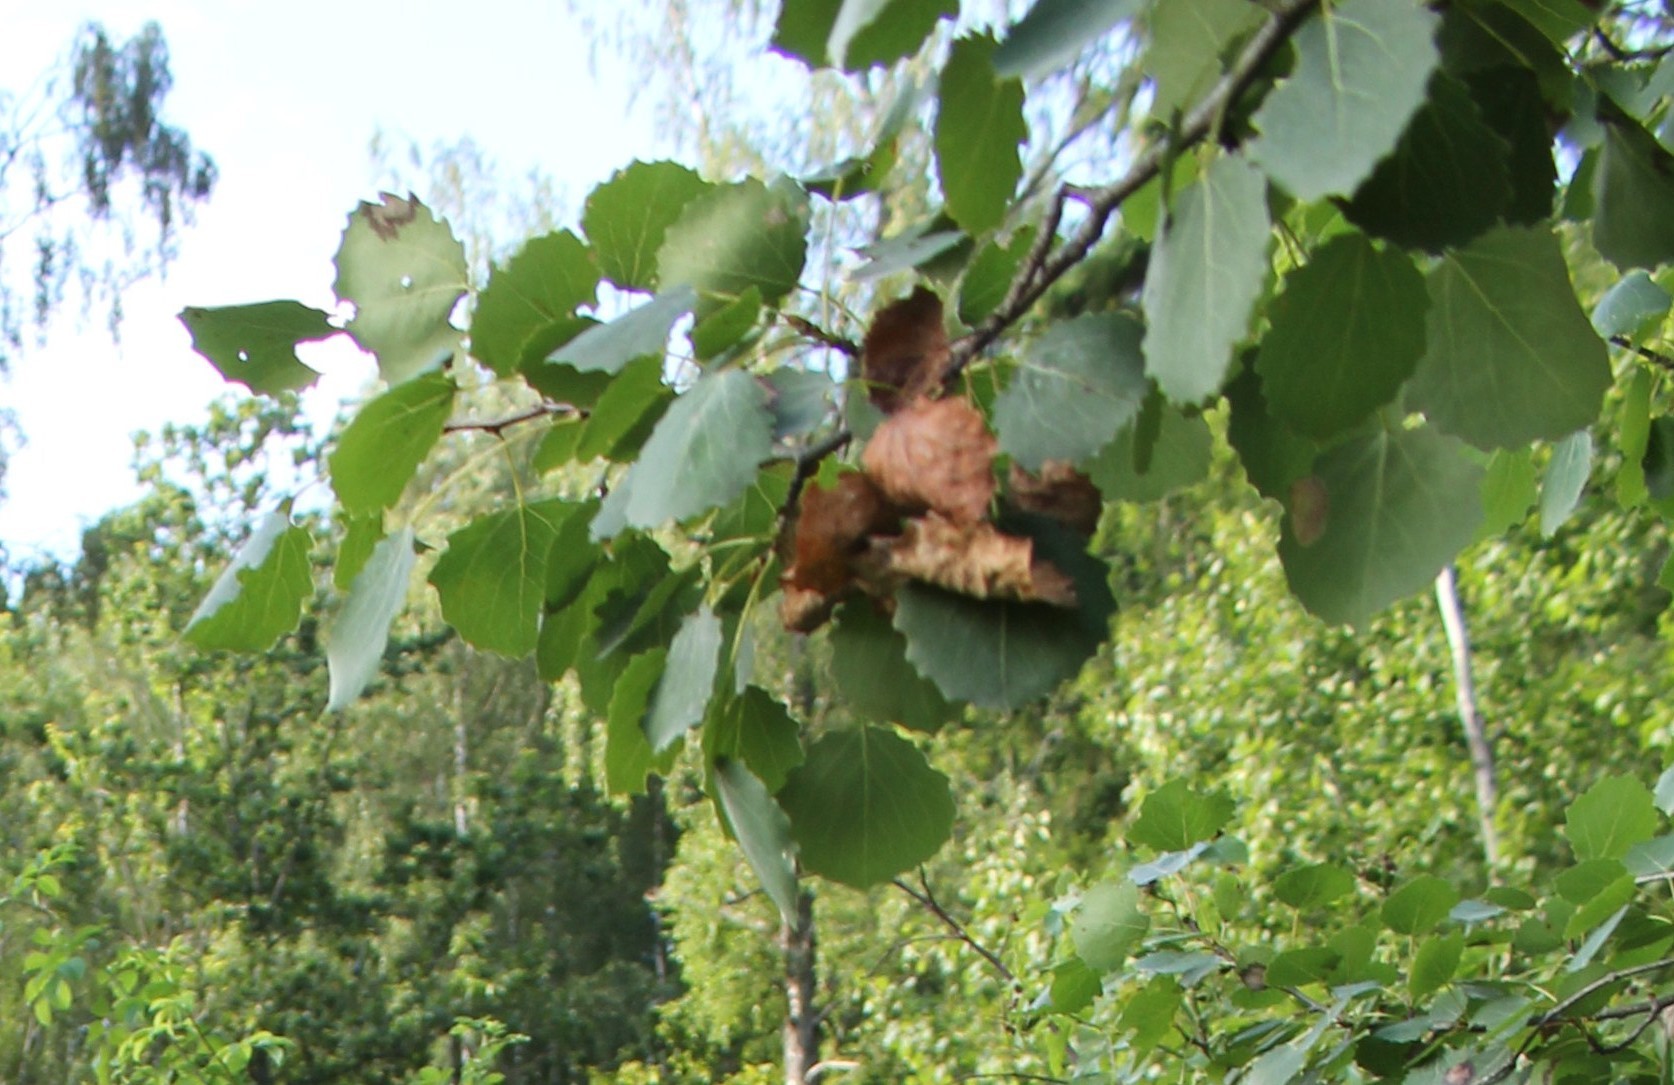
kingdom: Plantae
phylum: Tracheophyta
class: Magnoliopsida
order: Malpighiales
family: Salicaceae
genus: Populus
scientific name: Populus tremula
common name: European aspen
